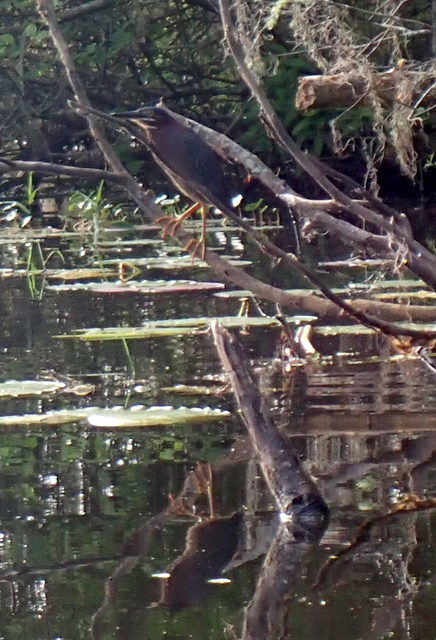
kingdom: Animalia
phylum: Chordata
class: Aves
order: Pelecaniformes
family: Ardeidae
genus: Butorides
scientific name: Butorides virescens
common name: Green heron
